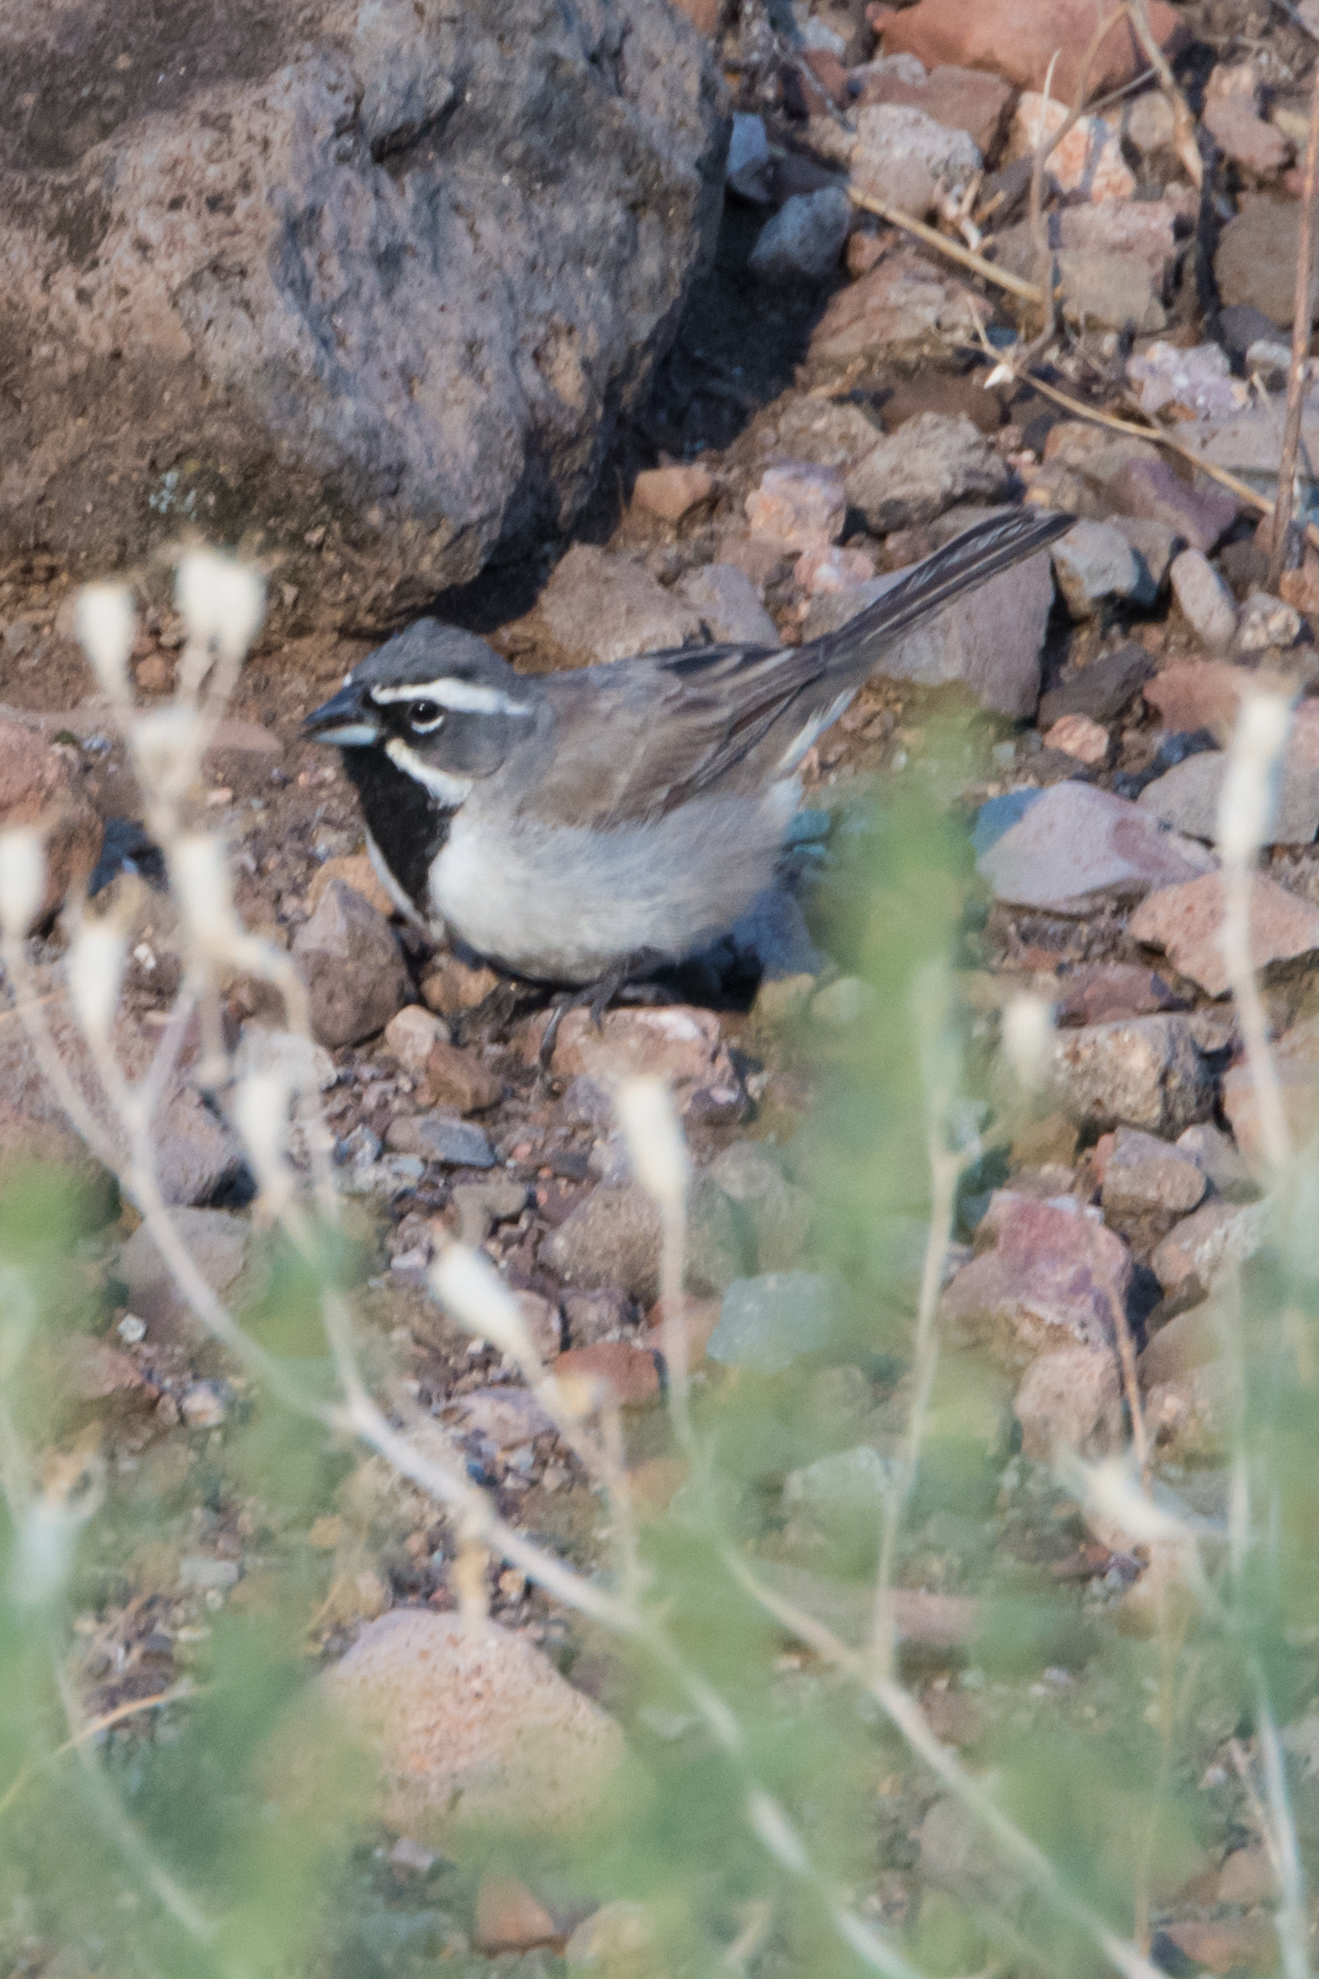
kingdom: Animalia
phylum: Chordata
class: Aves
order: Passeriformes
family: Passerellidae
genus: Amphispiza
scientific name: Amphispiza bilineata
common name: Black-throated sparrow
